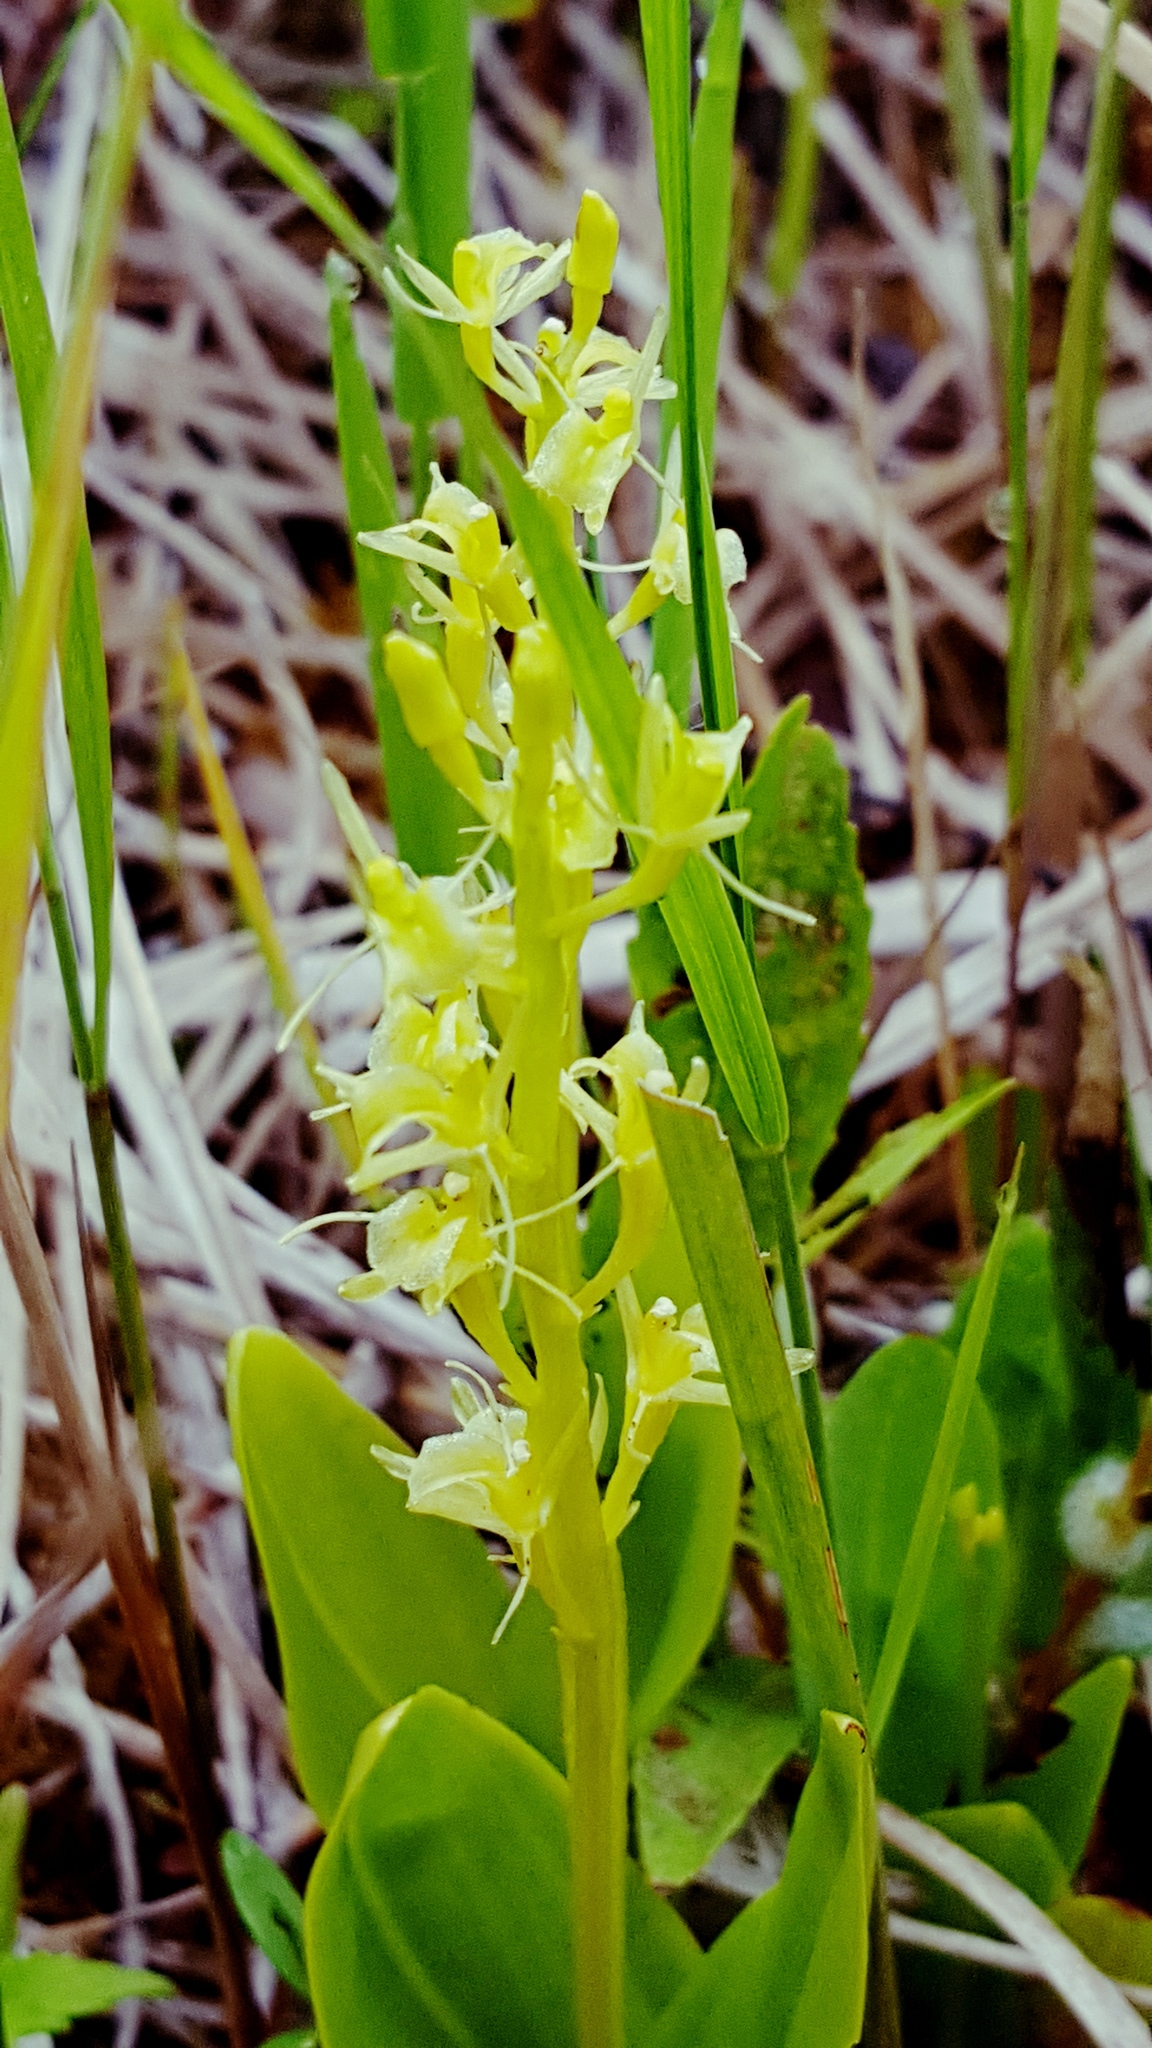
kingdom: Animalia
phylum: Arthropoda
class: Insecta
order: Coleoptera
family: Curculionidae
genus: Liparis
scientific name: Liparis loeselii
